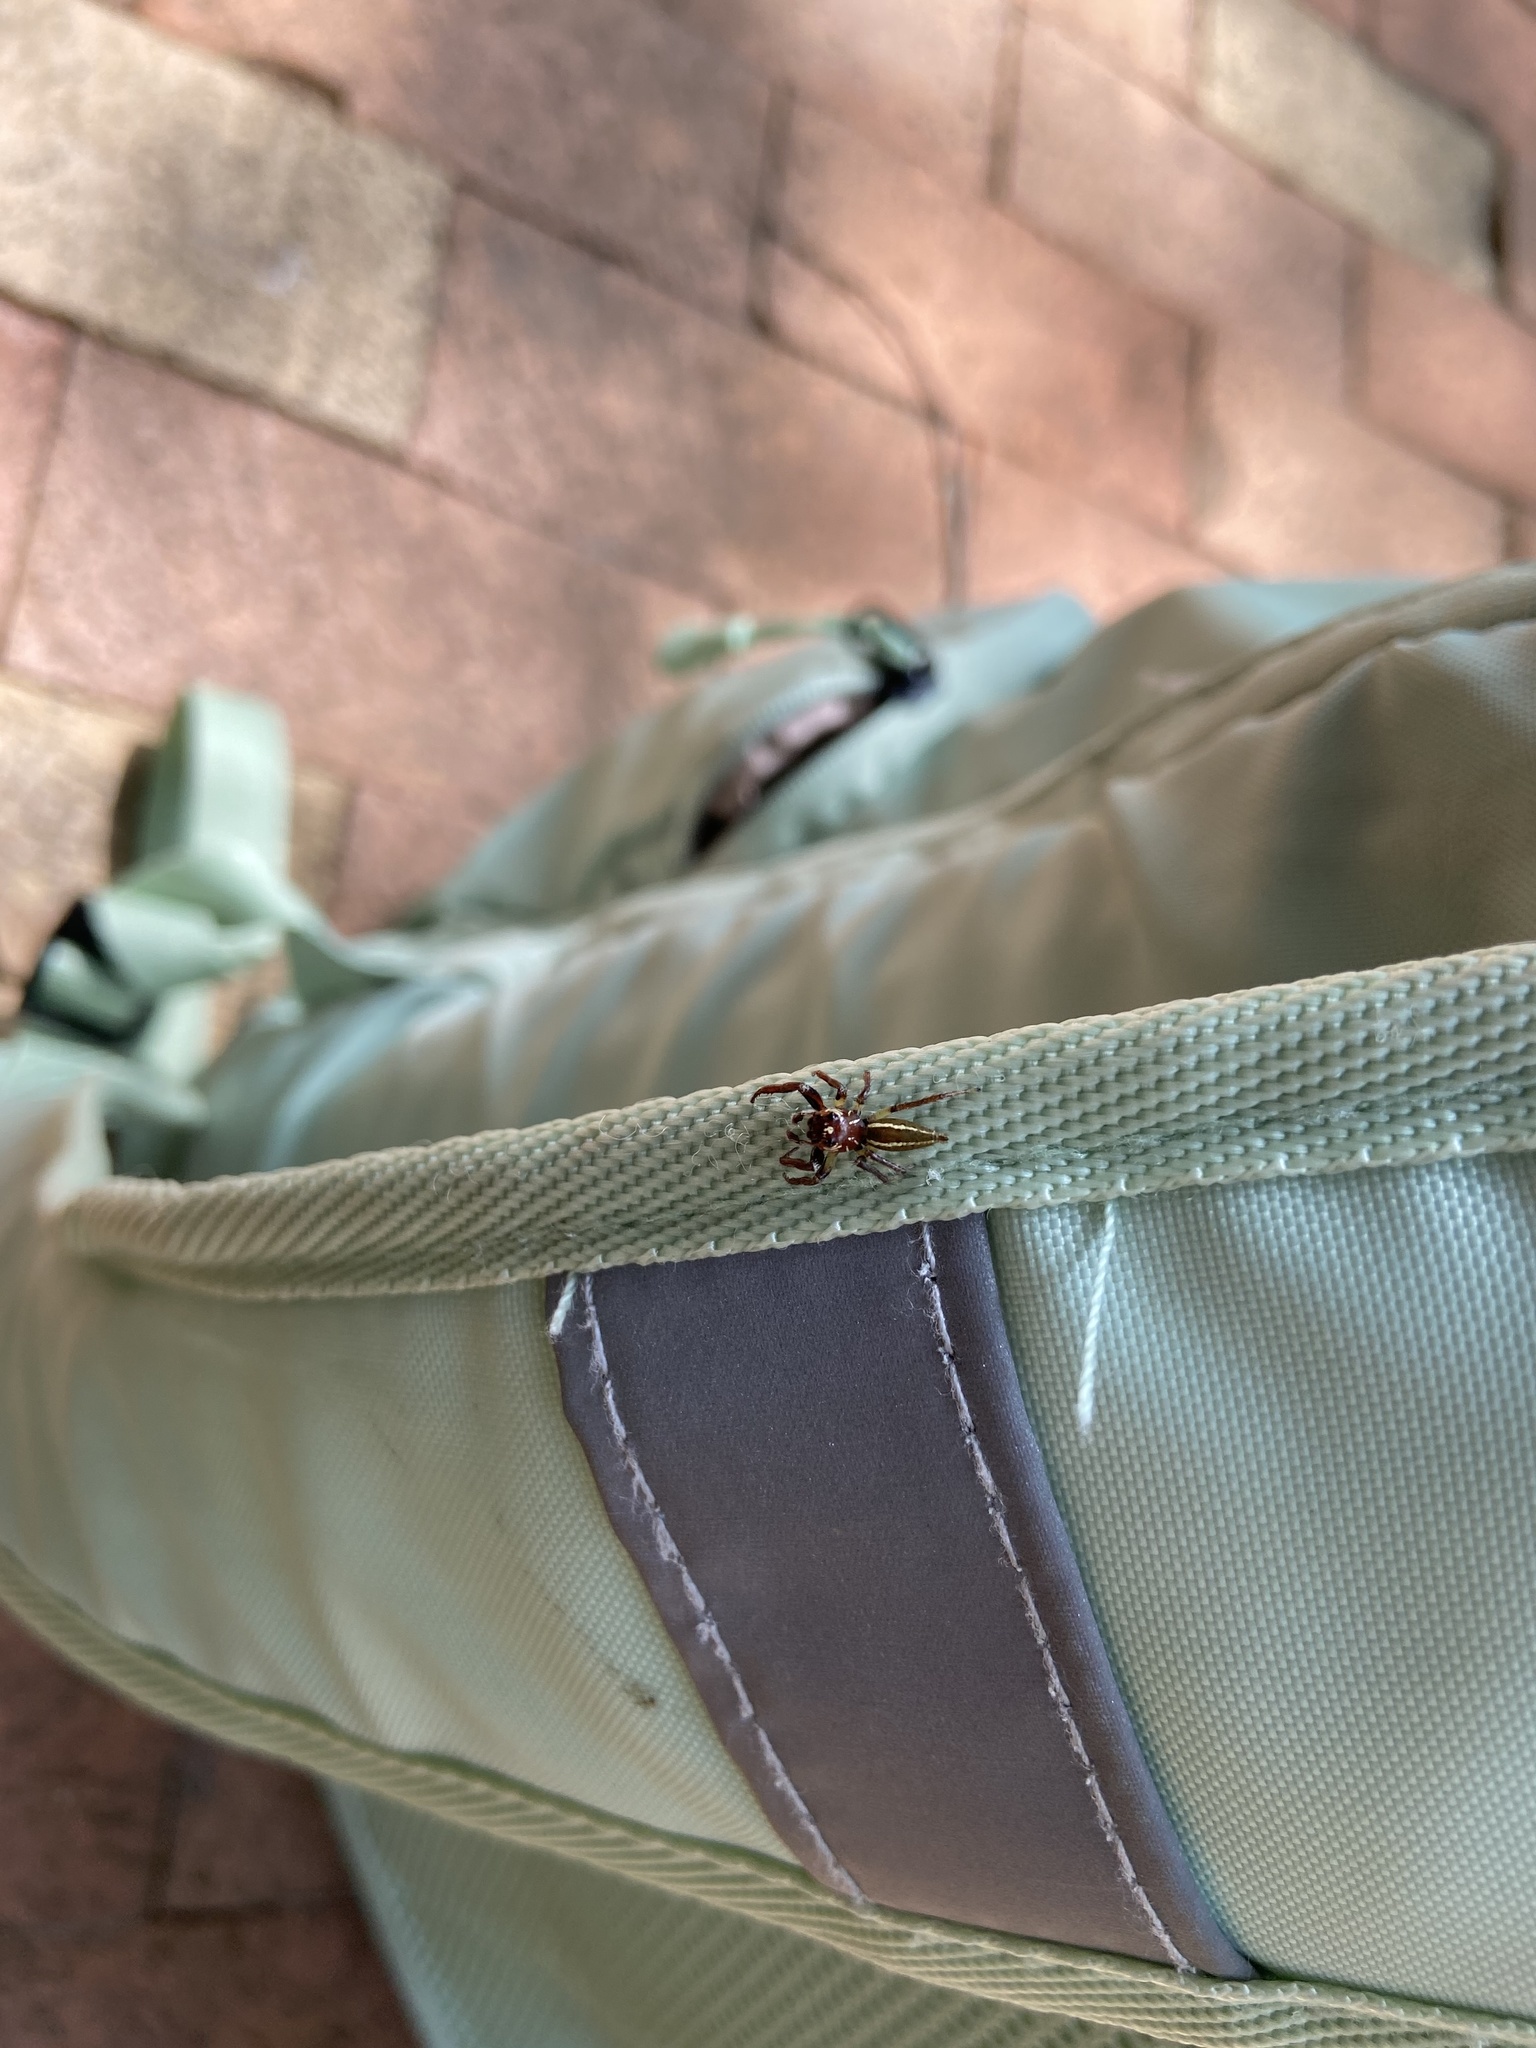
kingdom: Animalia
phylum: Arthropoda
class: Arachnida
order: Araneae
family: Salticidae
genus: Colonus
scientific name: Colonus sylvanus
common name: Jumping spiders
